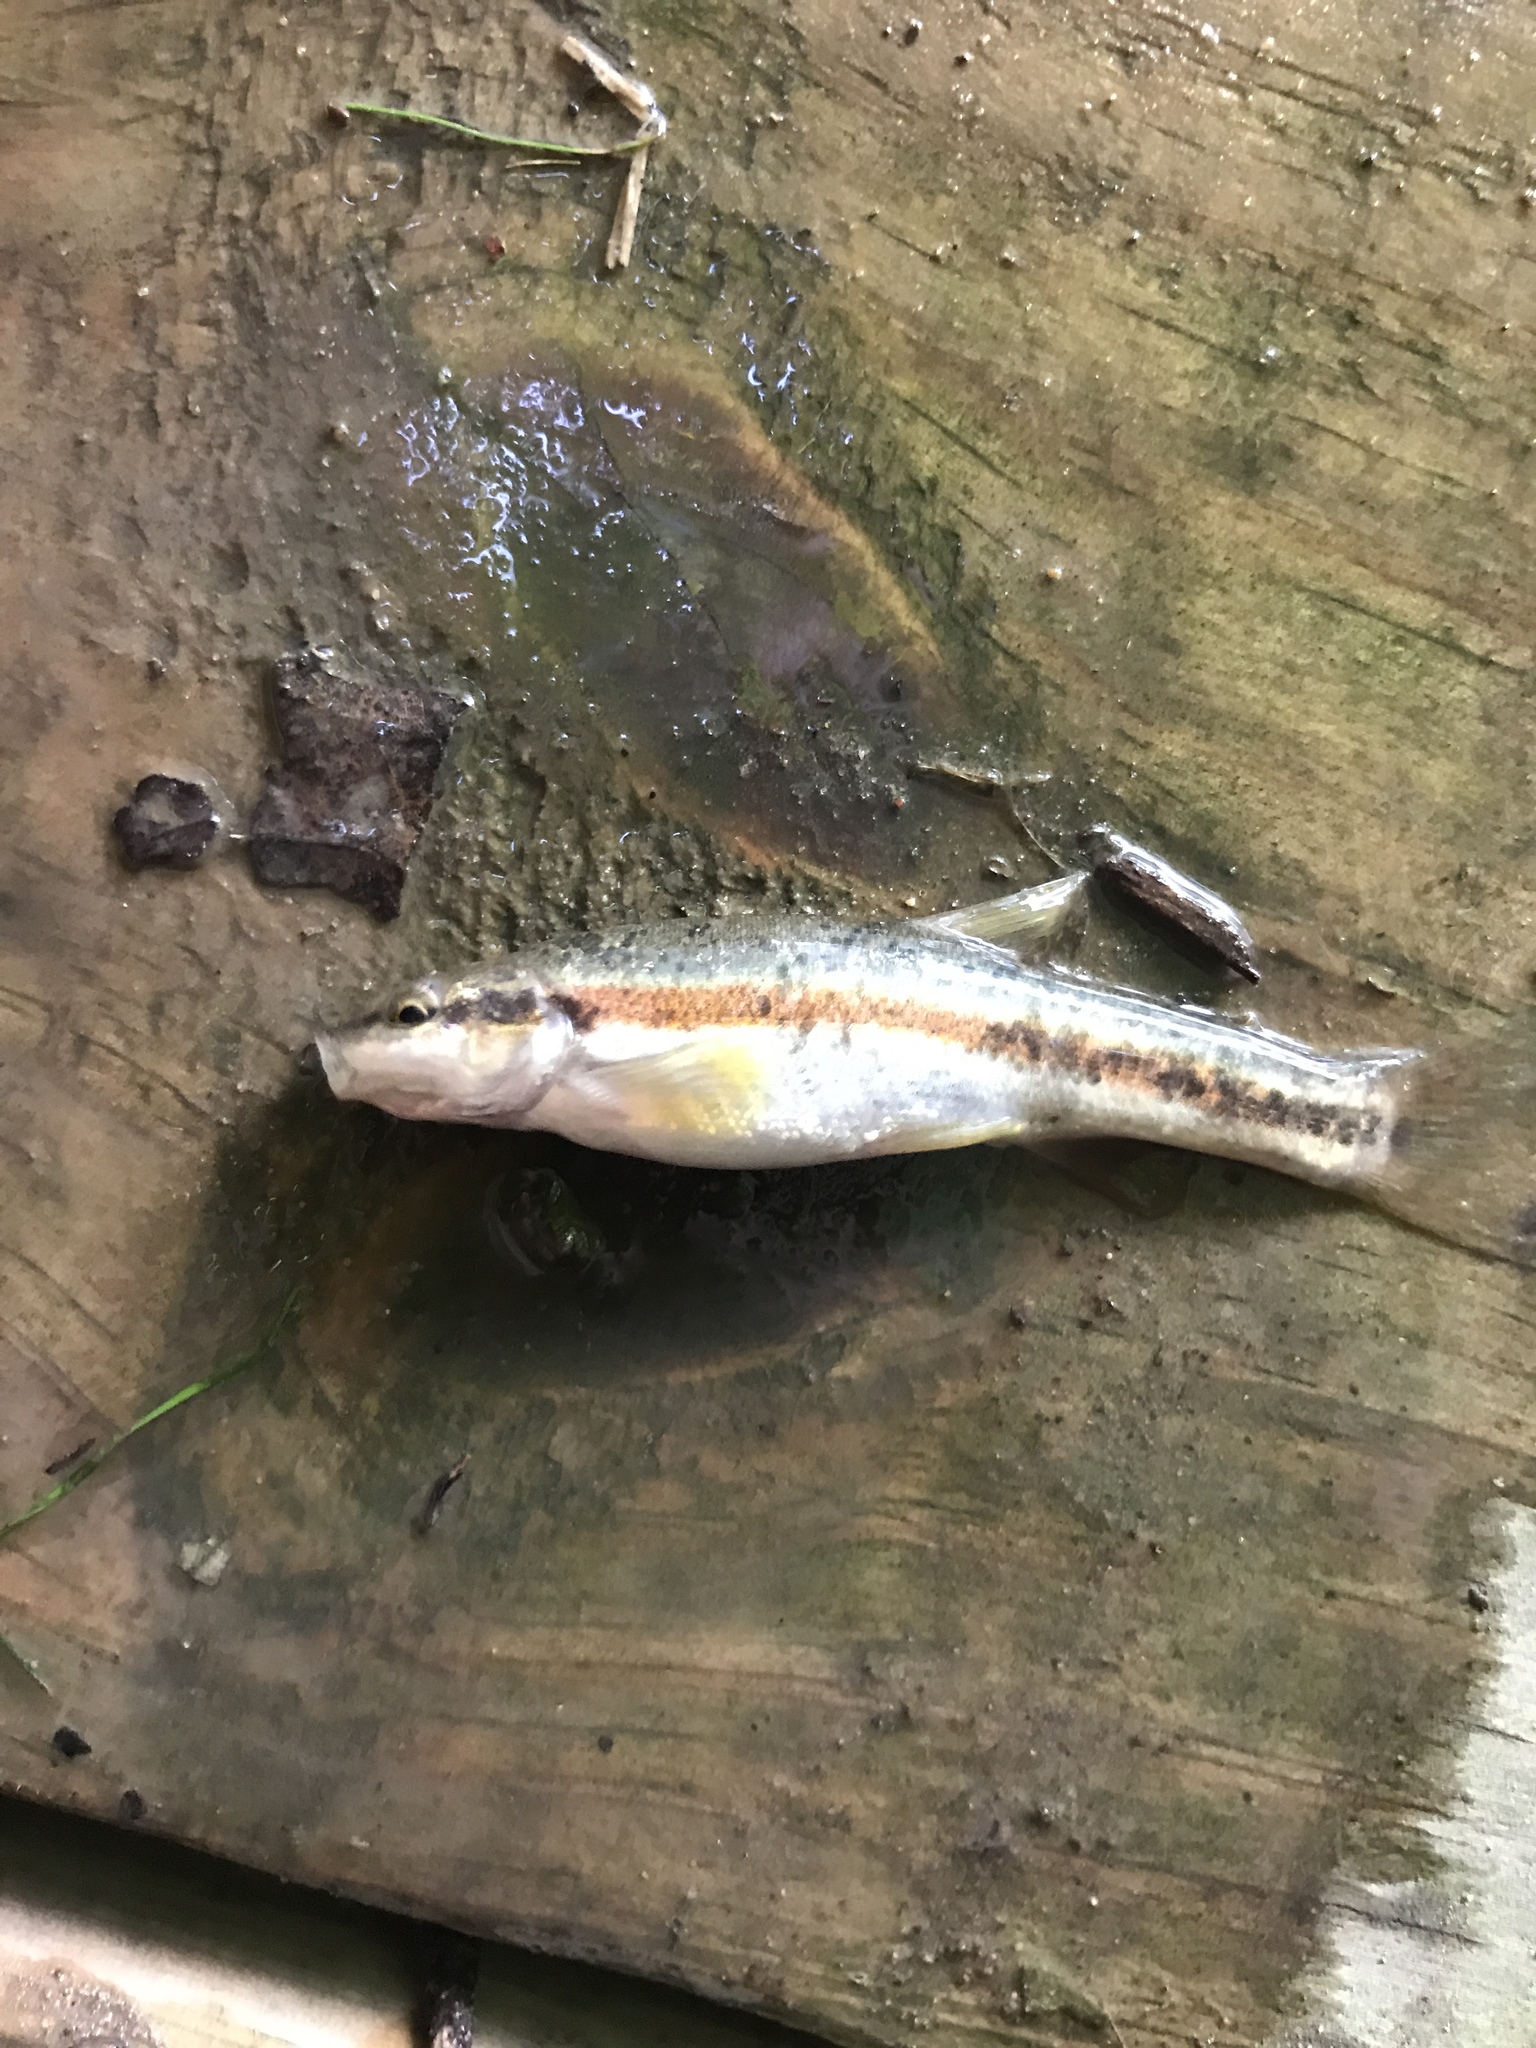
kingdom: Animalia
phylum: Chordata
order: Cypriniformes
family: Cyprinidae
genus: Rhinichthys
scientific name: Rhinichthys obtusus
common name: Western blacknose dace
